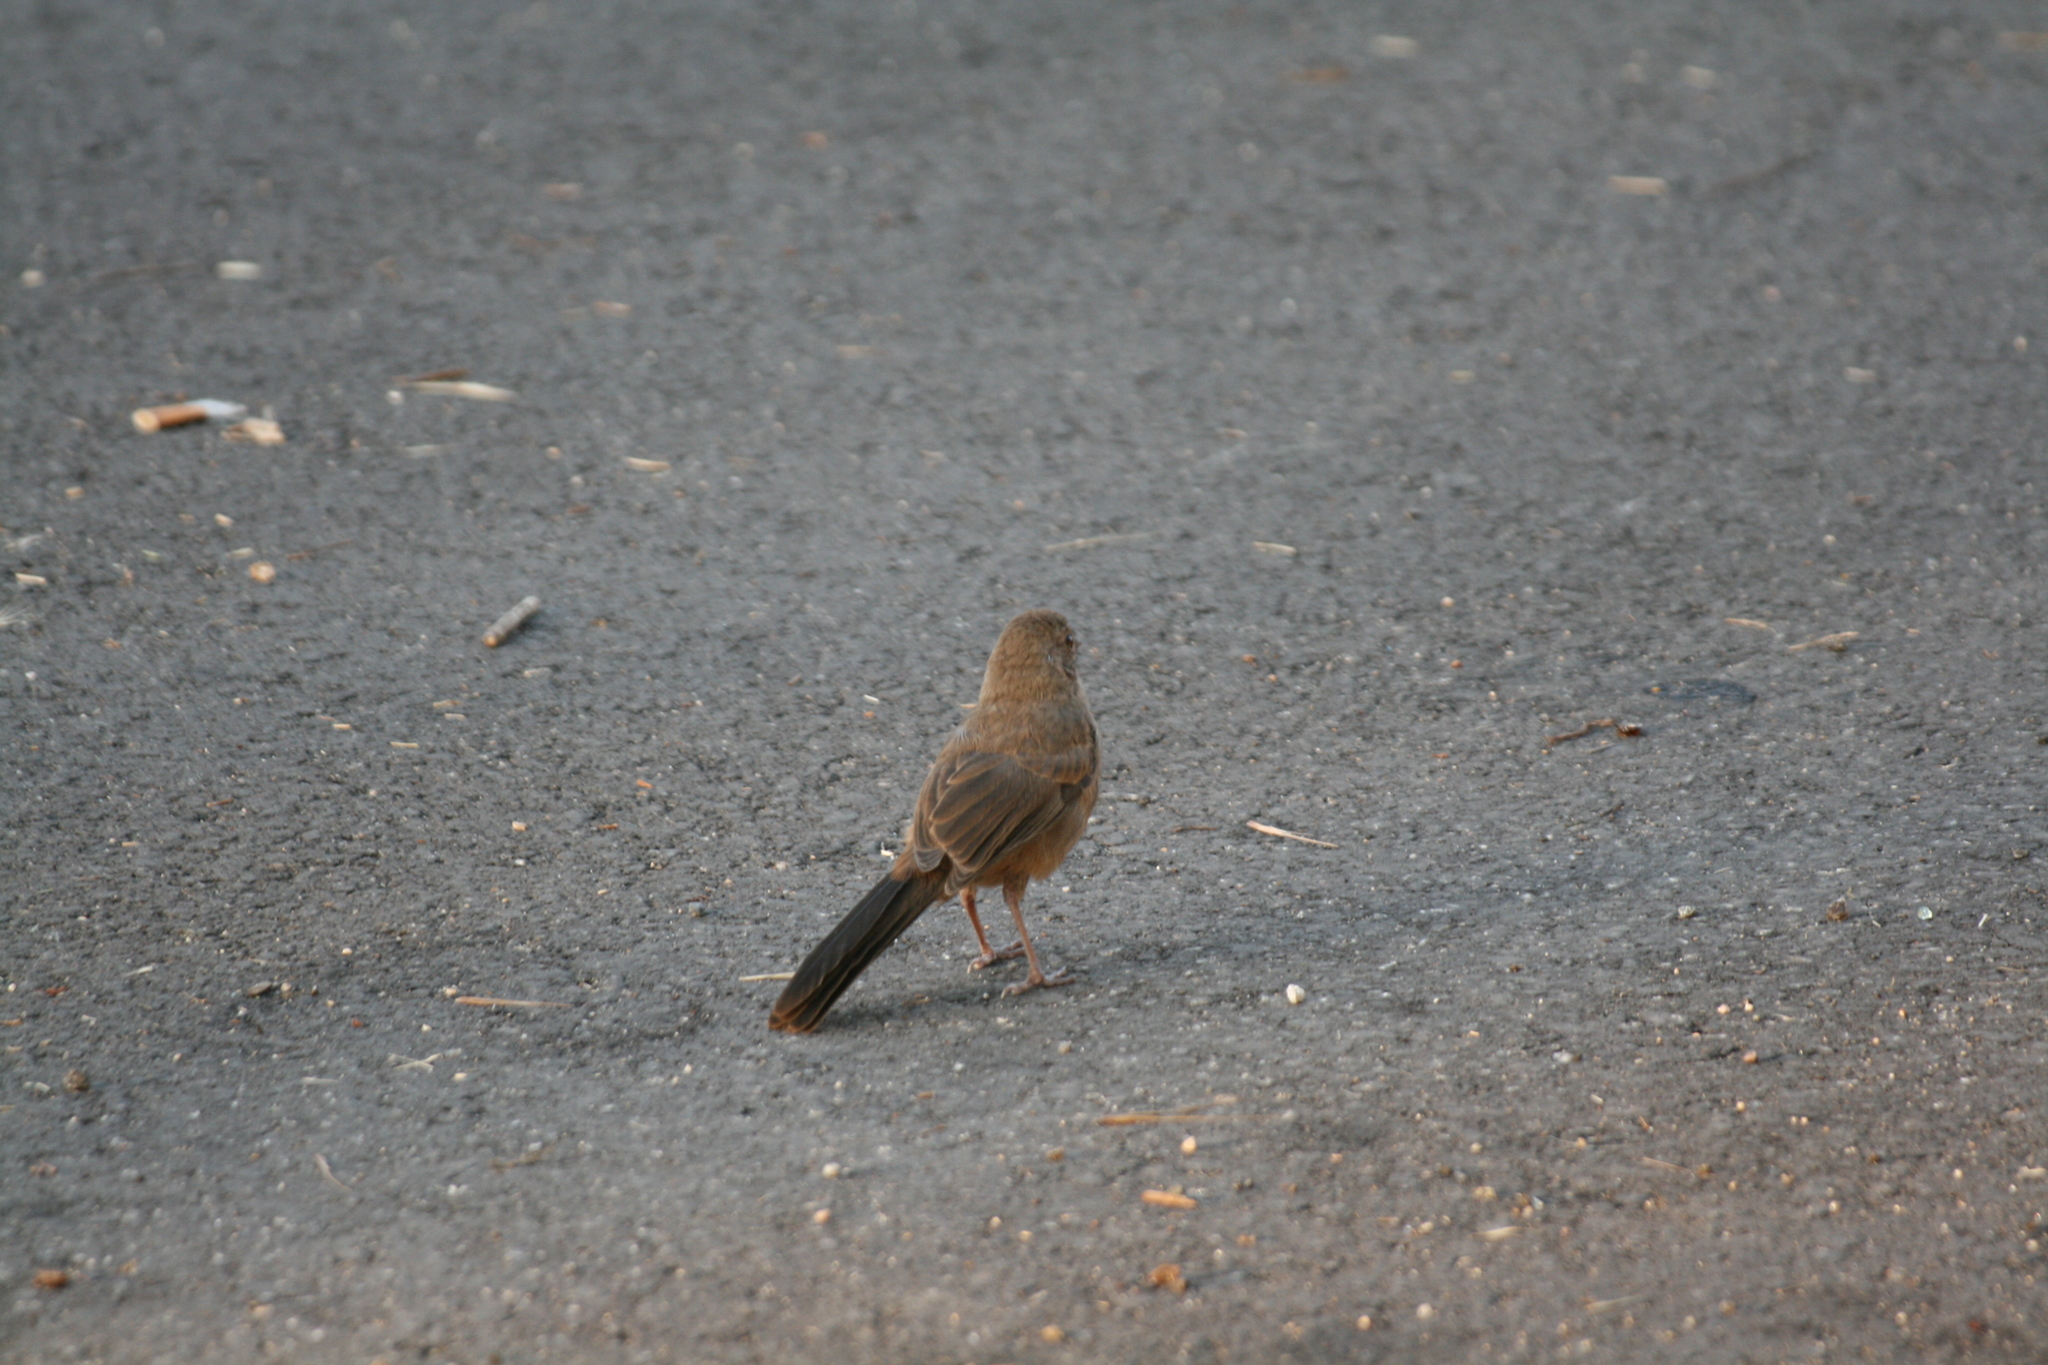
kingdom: Animalia
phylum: Chordata
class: Aves
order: Passeriformes
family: Passerellidae
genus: Melozone
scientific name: Melozone crissalis
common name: California towhee
